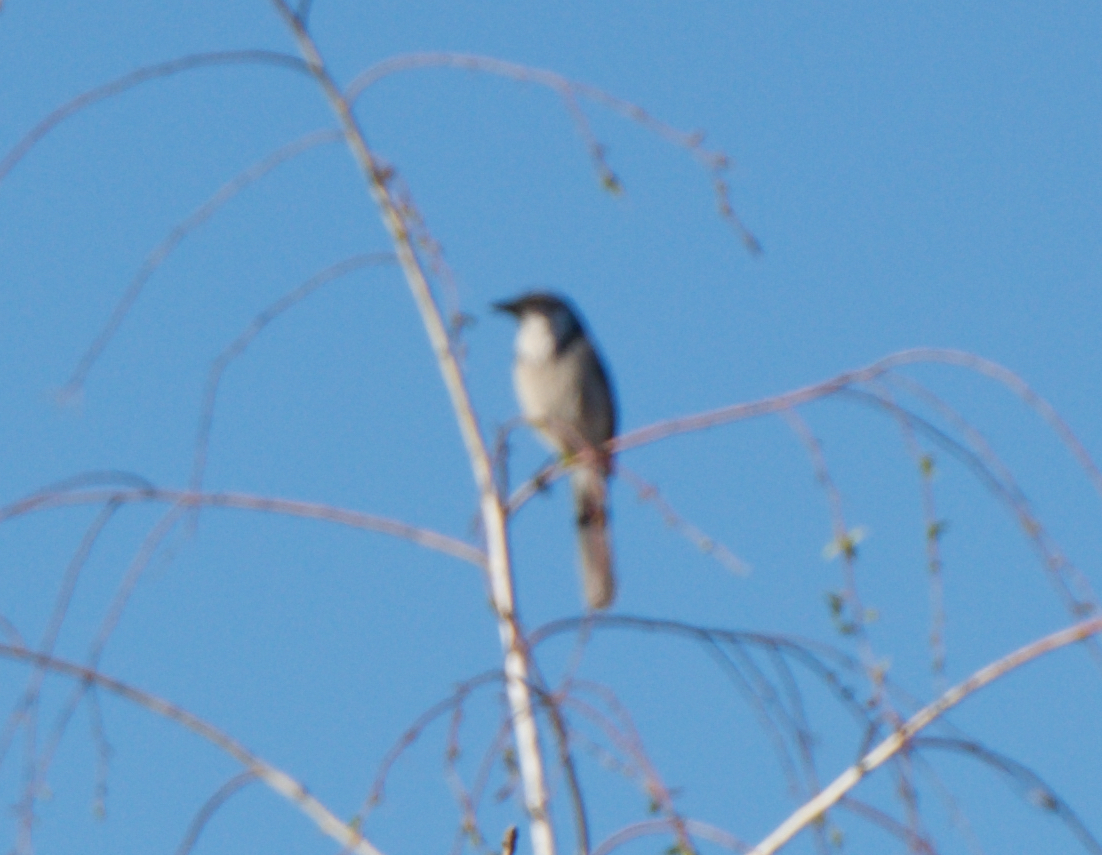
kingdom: Animalia
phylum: Chordata
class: Aves
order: Passeriformes
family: Corvidae
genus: Aphelocoma
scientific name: Aphelocoma californica
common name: California scrub-jay
